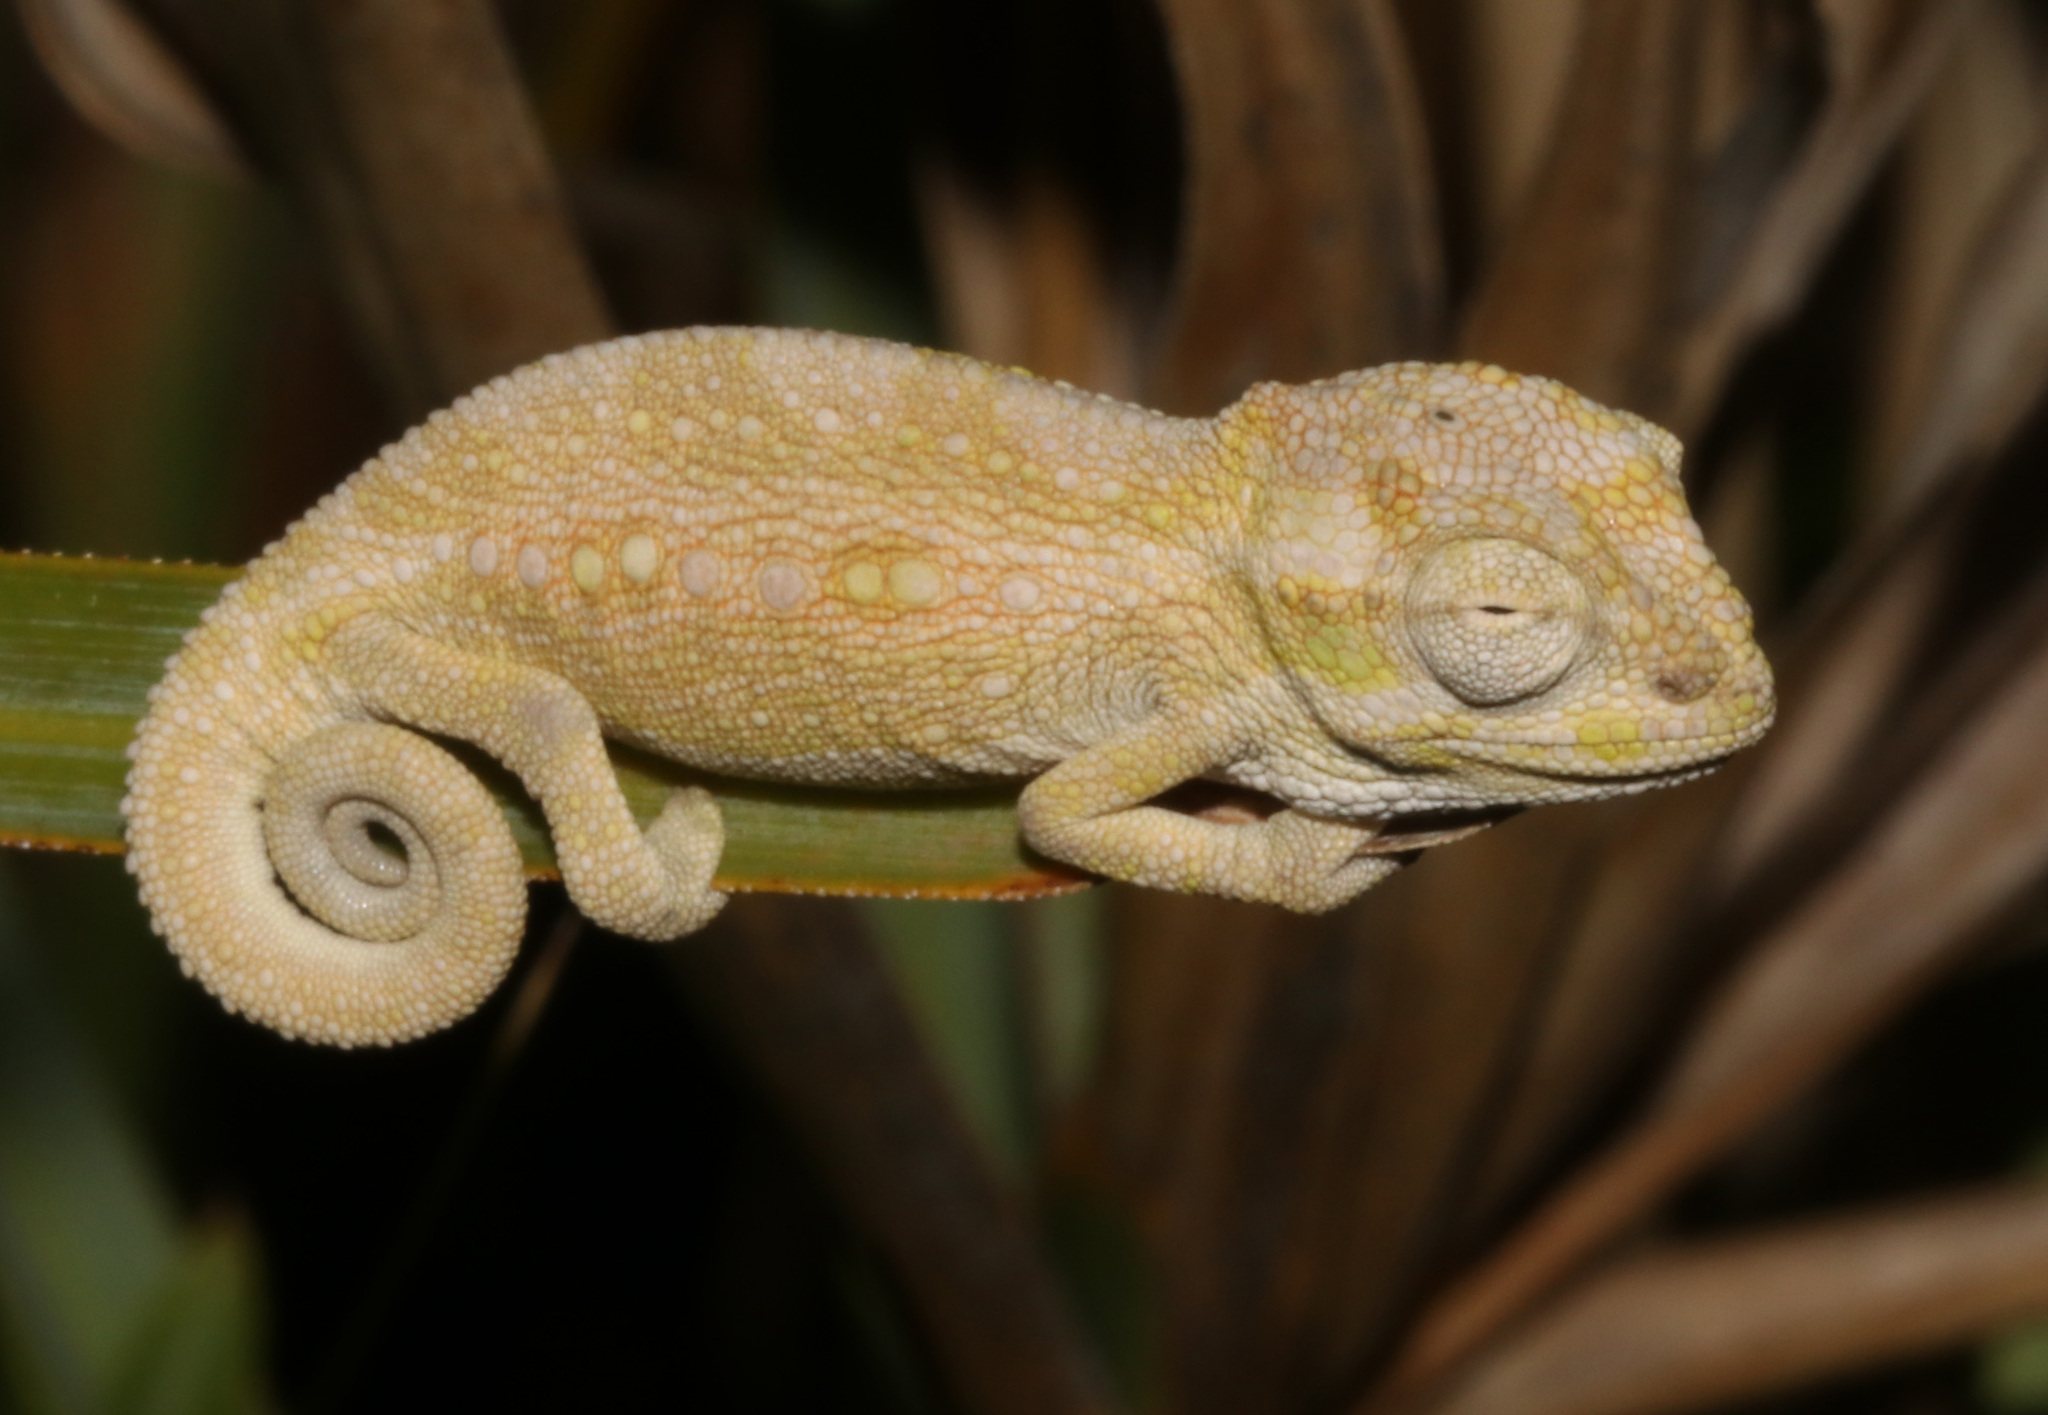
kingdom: Animalia
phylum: Chordata
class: Squamata
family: Chamaeleonidae
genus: Bradypodion
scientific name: Bradypodion pumilum
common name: Cape dwarf chameleon
